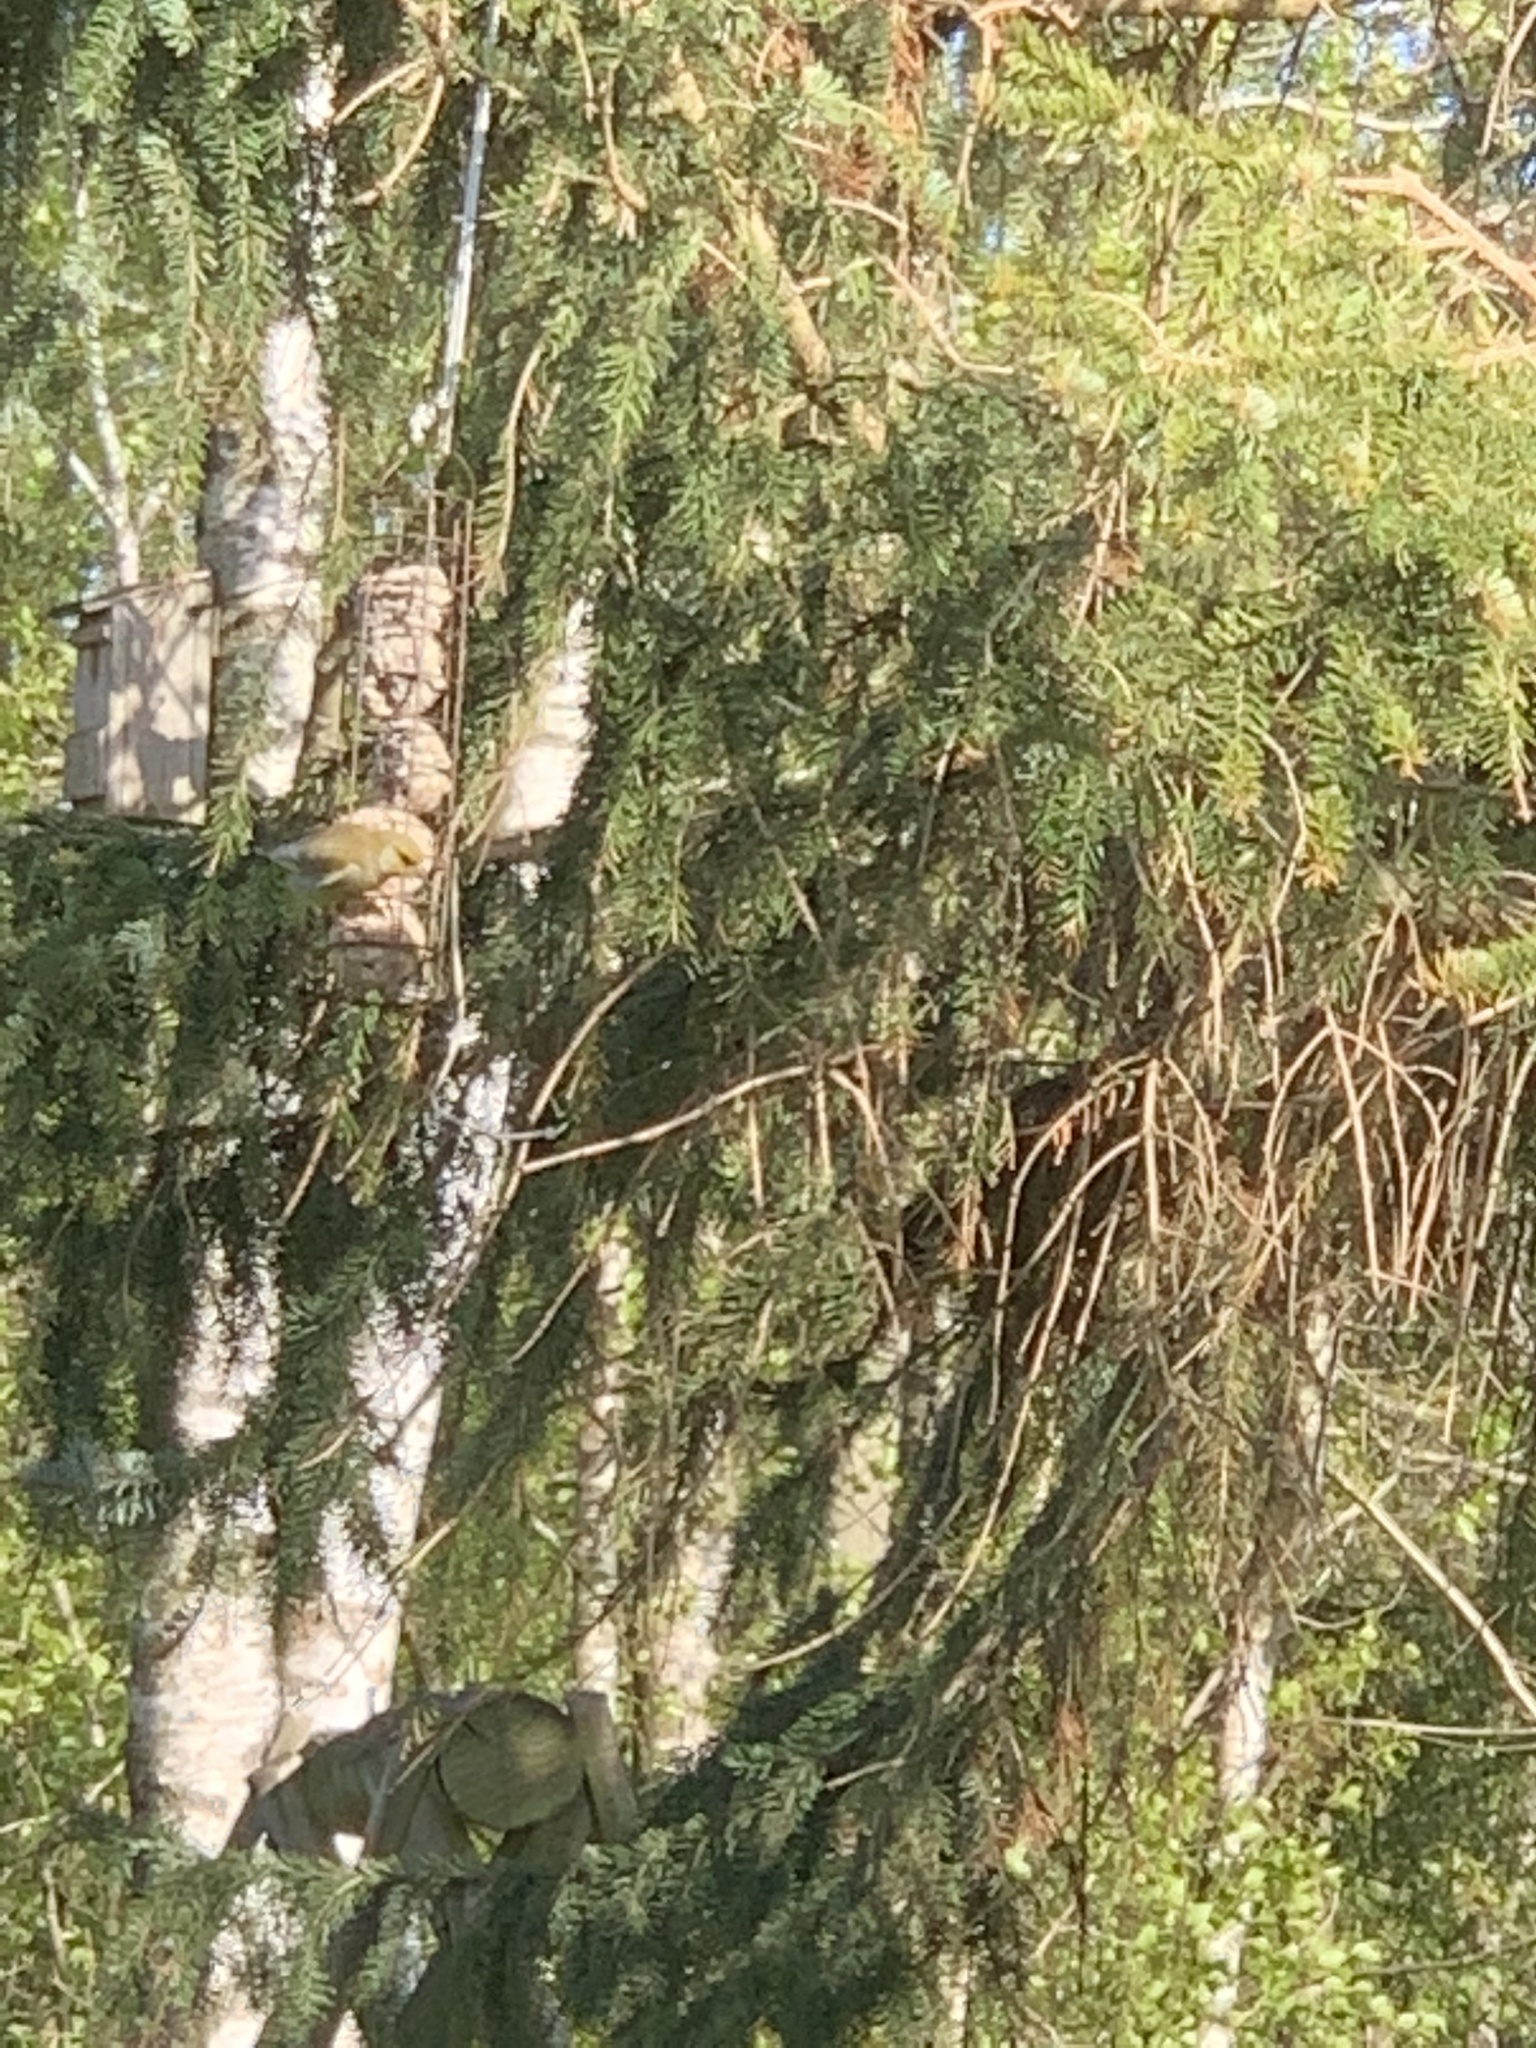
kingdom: Plantae
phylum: Tracheophyta
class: Liliopsida
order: Poales
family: Poaceae
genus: Chloris
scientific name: Chloris chloris
